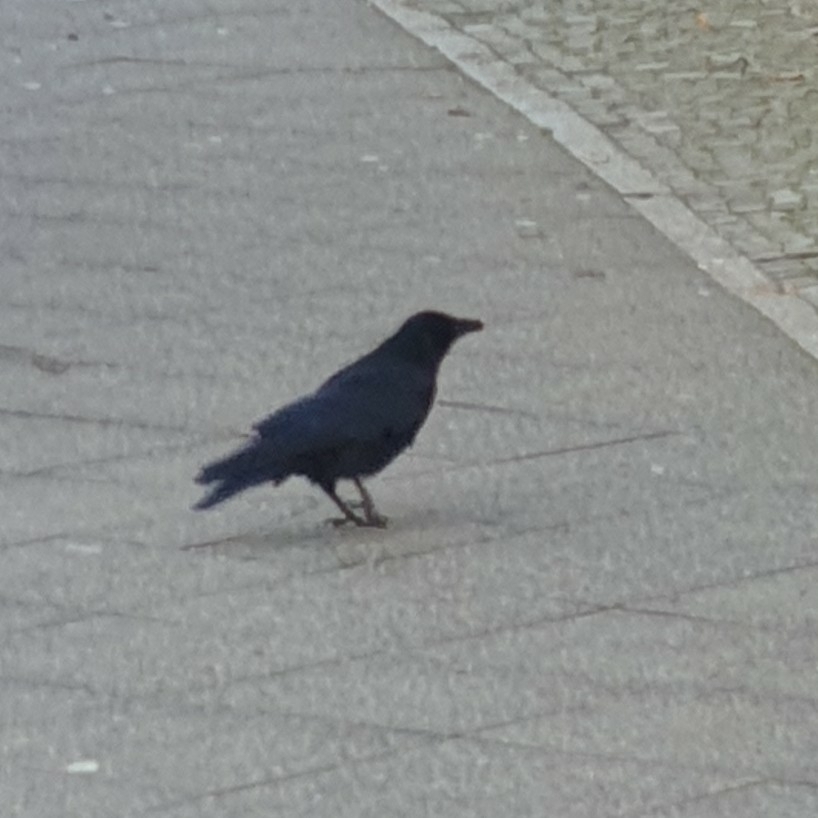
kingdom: Animalia
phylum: Chordata
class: Aves
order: Passeriformes
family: Corvidae
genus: Corvus
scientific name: Corvus corone
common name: Carrion crow
